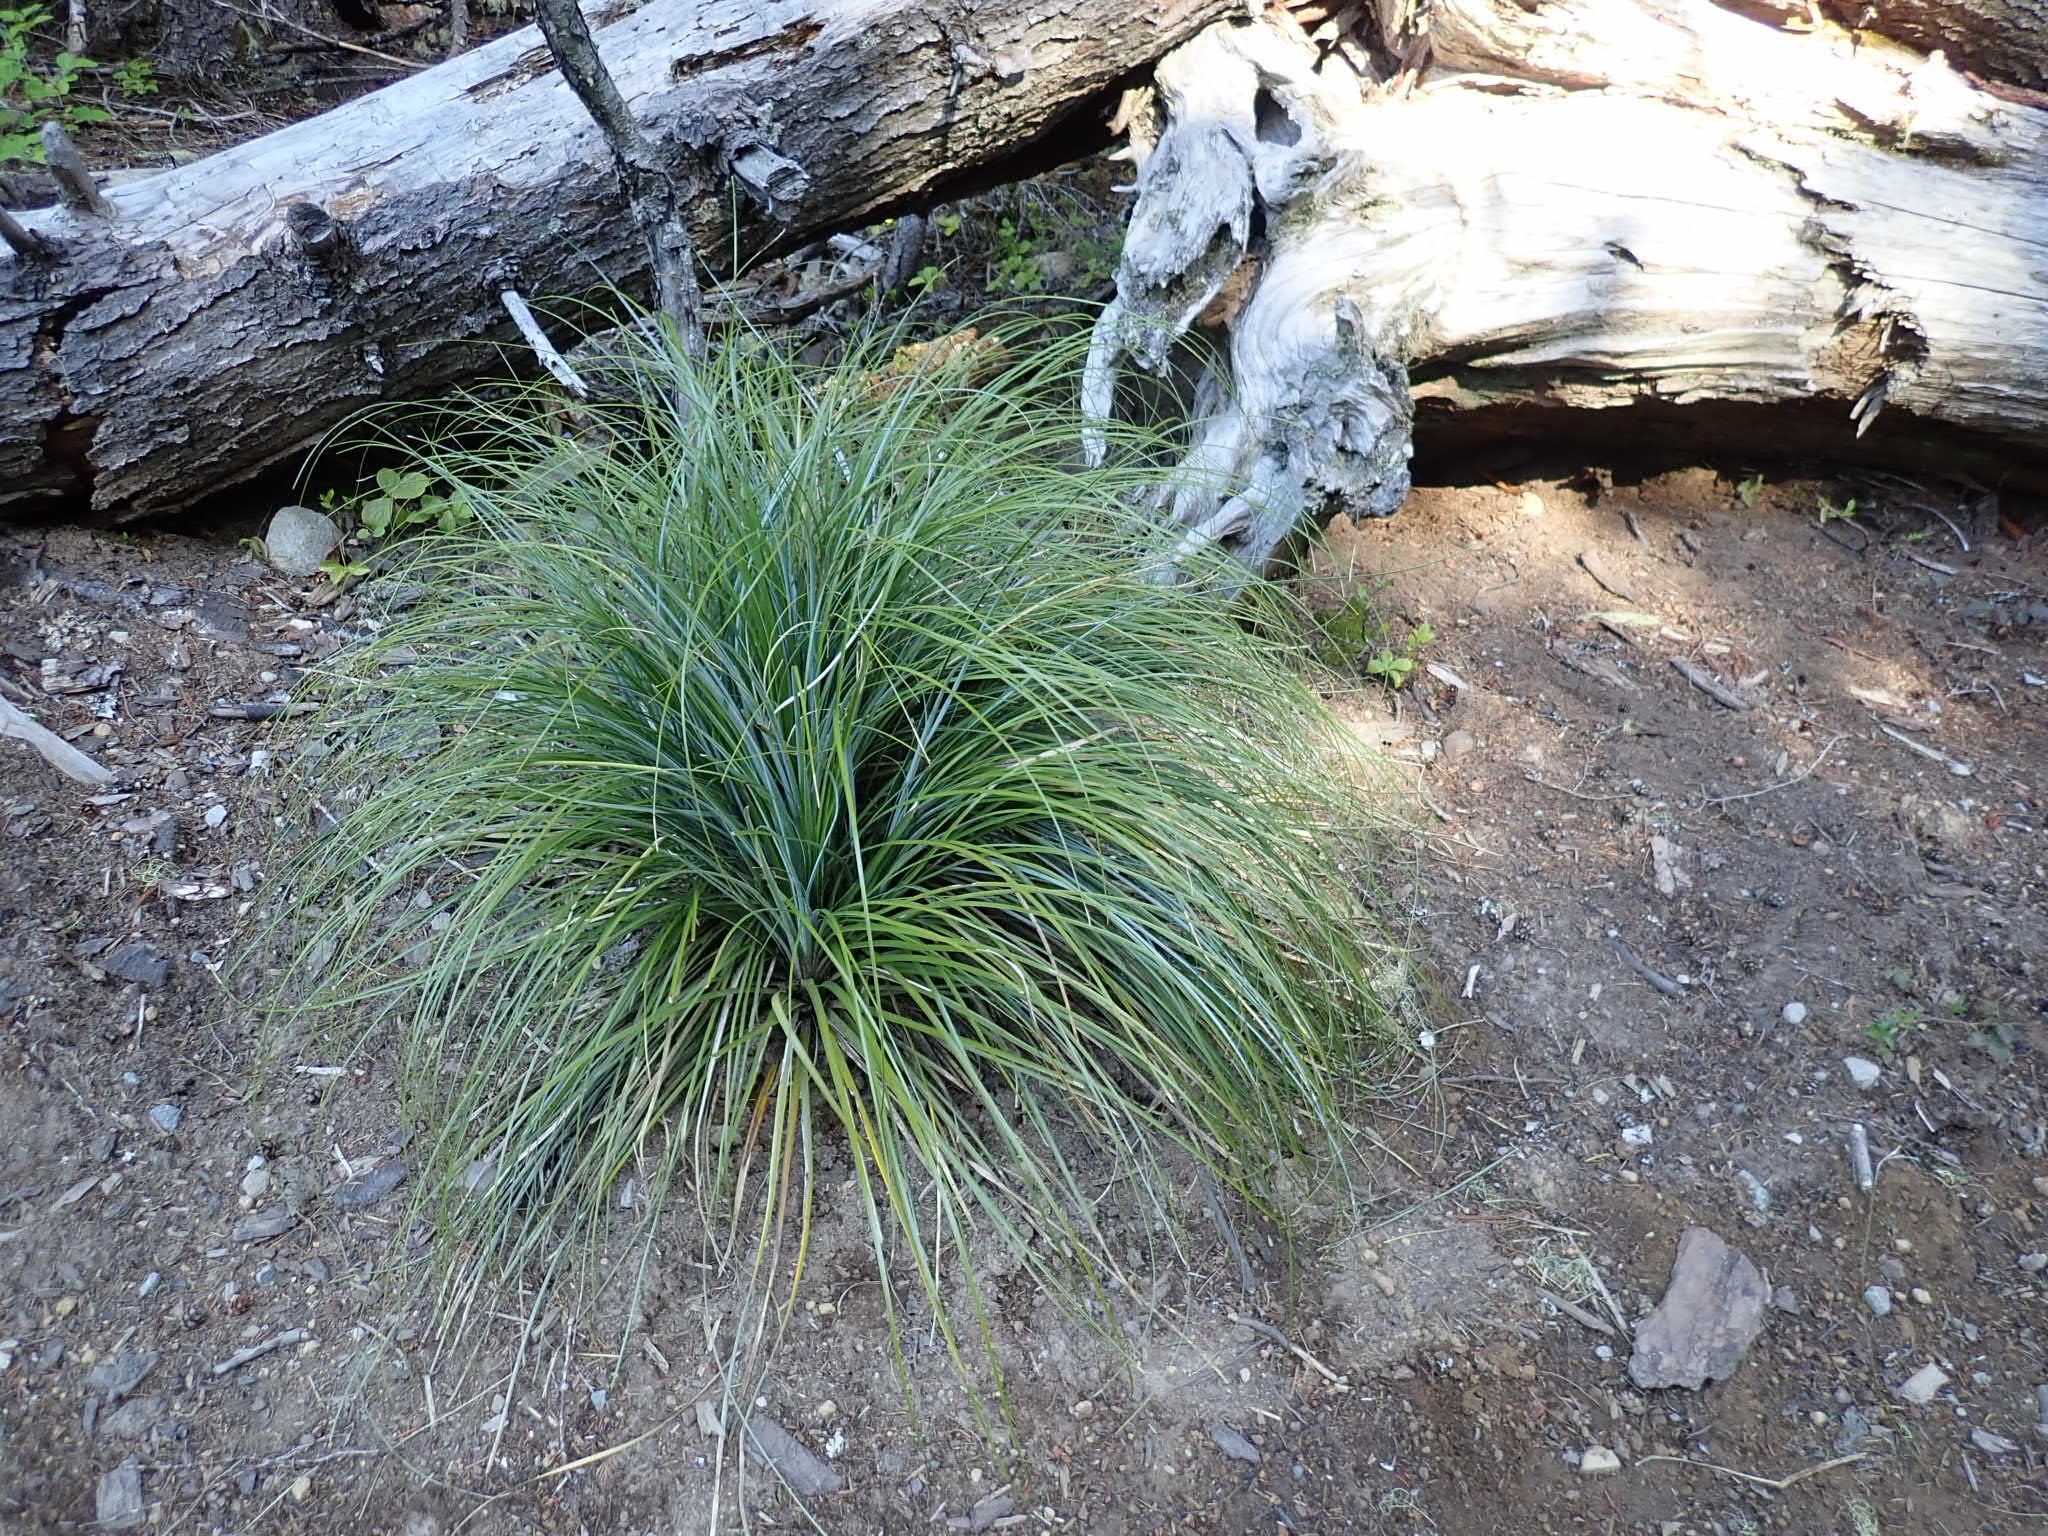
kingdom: Plantae
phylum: Tracheophyta
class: Liliopsida
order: Liliales
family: Melanthiaceae
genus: Xerophyllum
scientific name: Xerophyllum tenax
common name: Bear-grass
